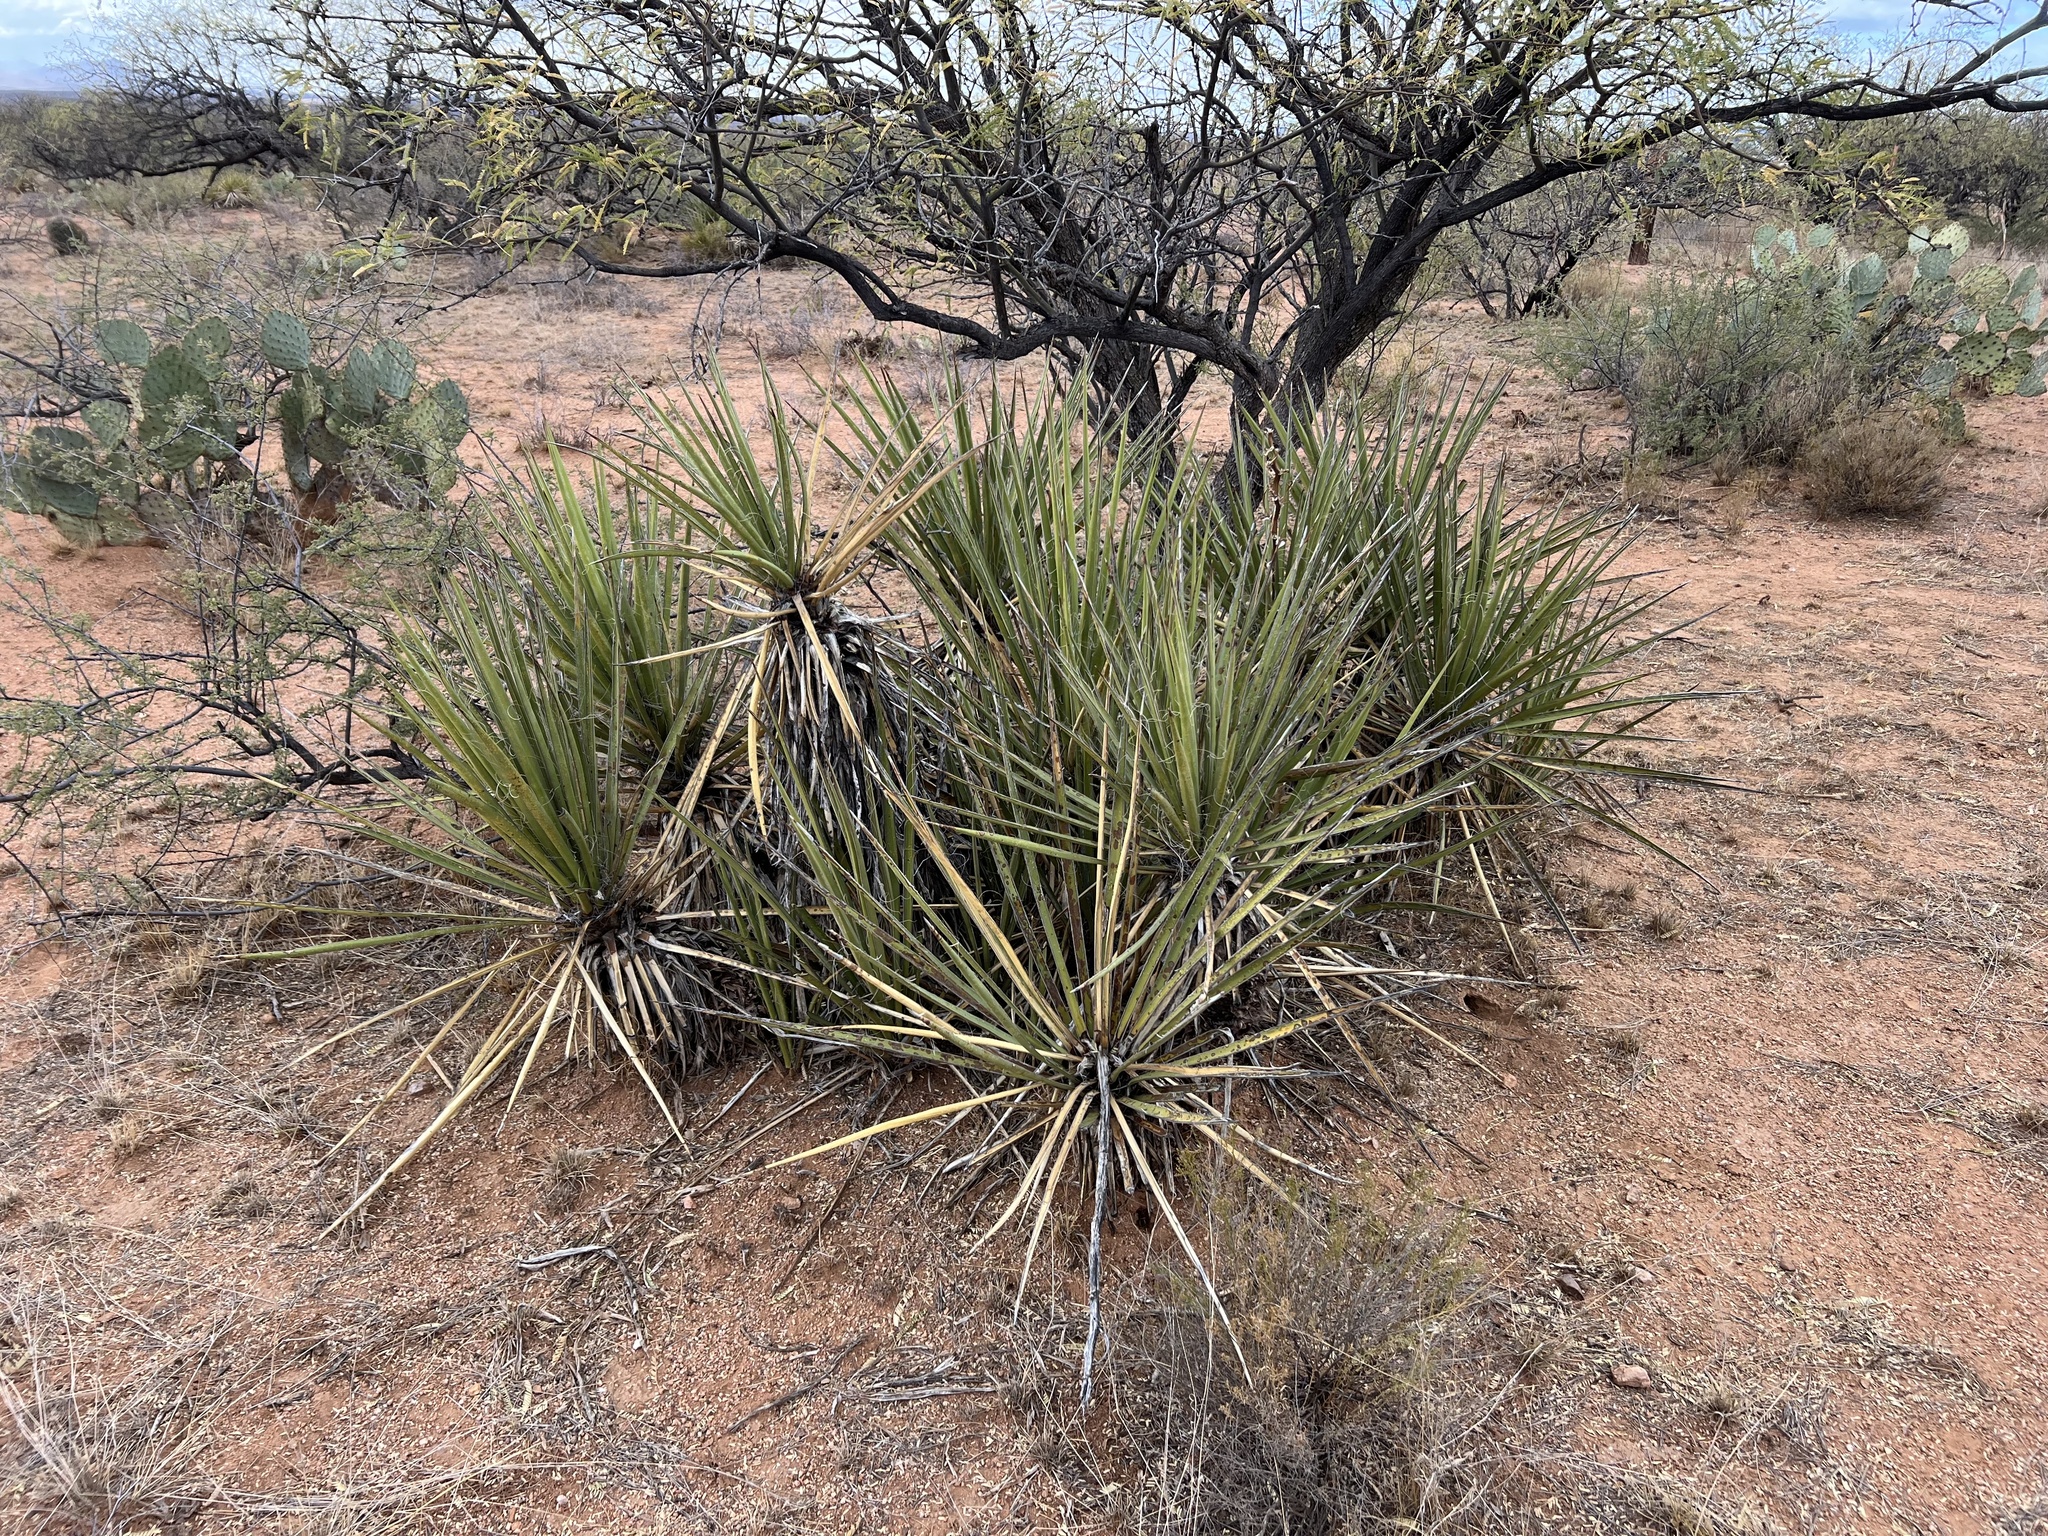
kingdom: Plantae
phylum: Tracheophyta
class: Liliopsida
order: Asparagales
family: Asparagaceae
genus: Yucca
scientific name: Yucca baccata
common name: Banana yucca
